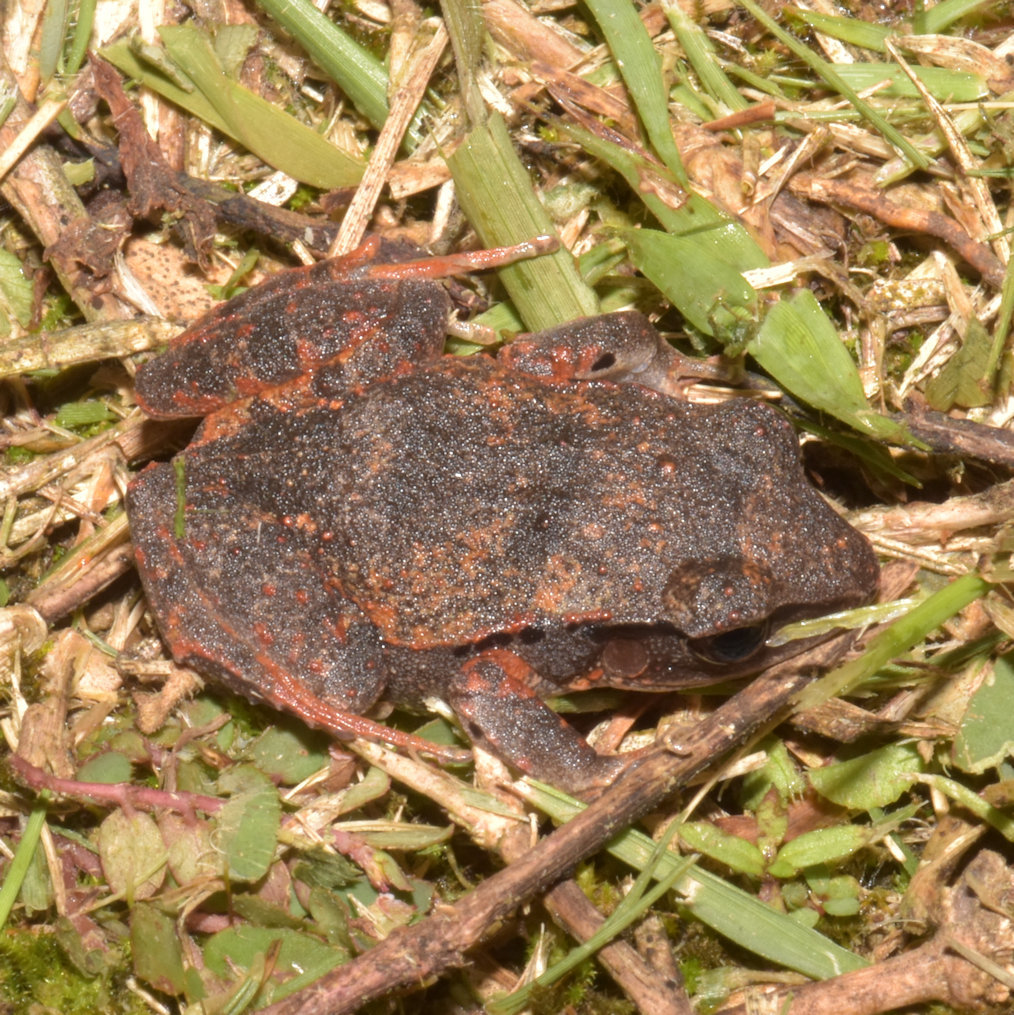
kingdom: Animalia
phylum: Chordata
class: Amphibia
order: Anura
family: Eleutherodactylidae
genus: Eleutherodactylus
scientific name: Eleutherodactylus pentasyringos
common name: John crow yellow-bellied frog
